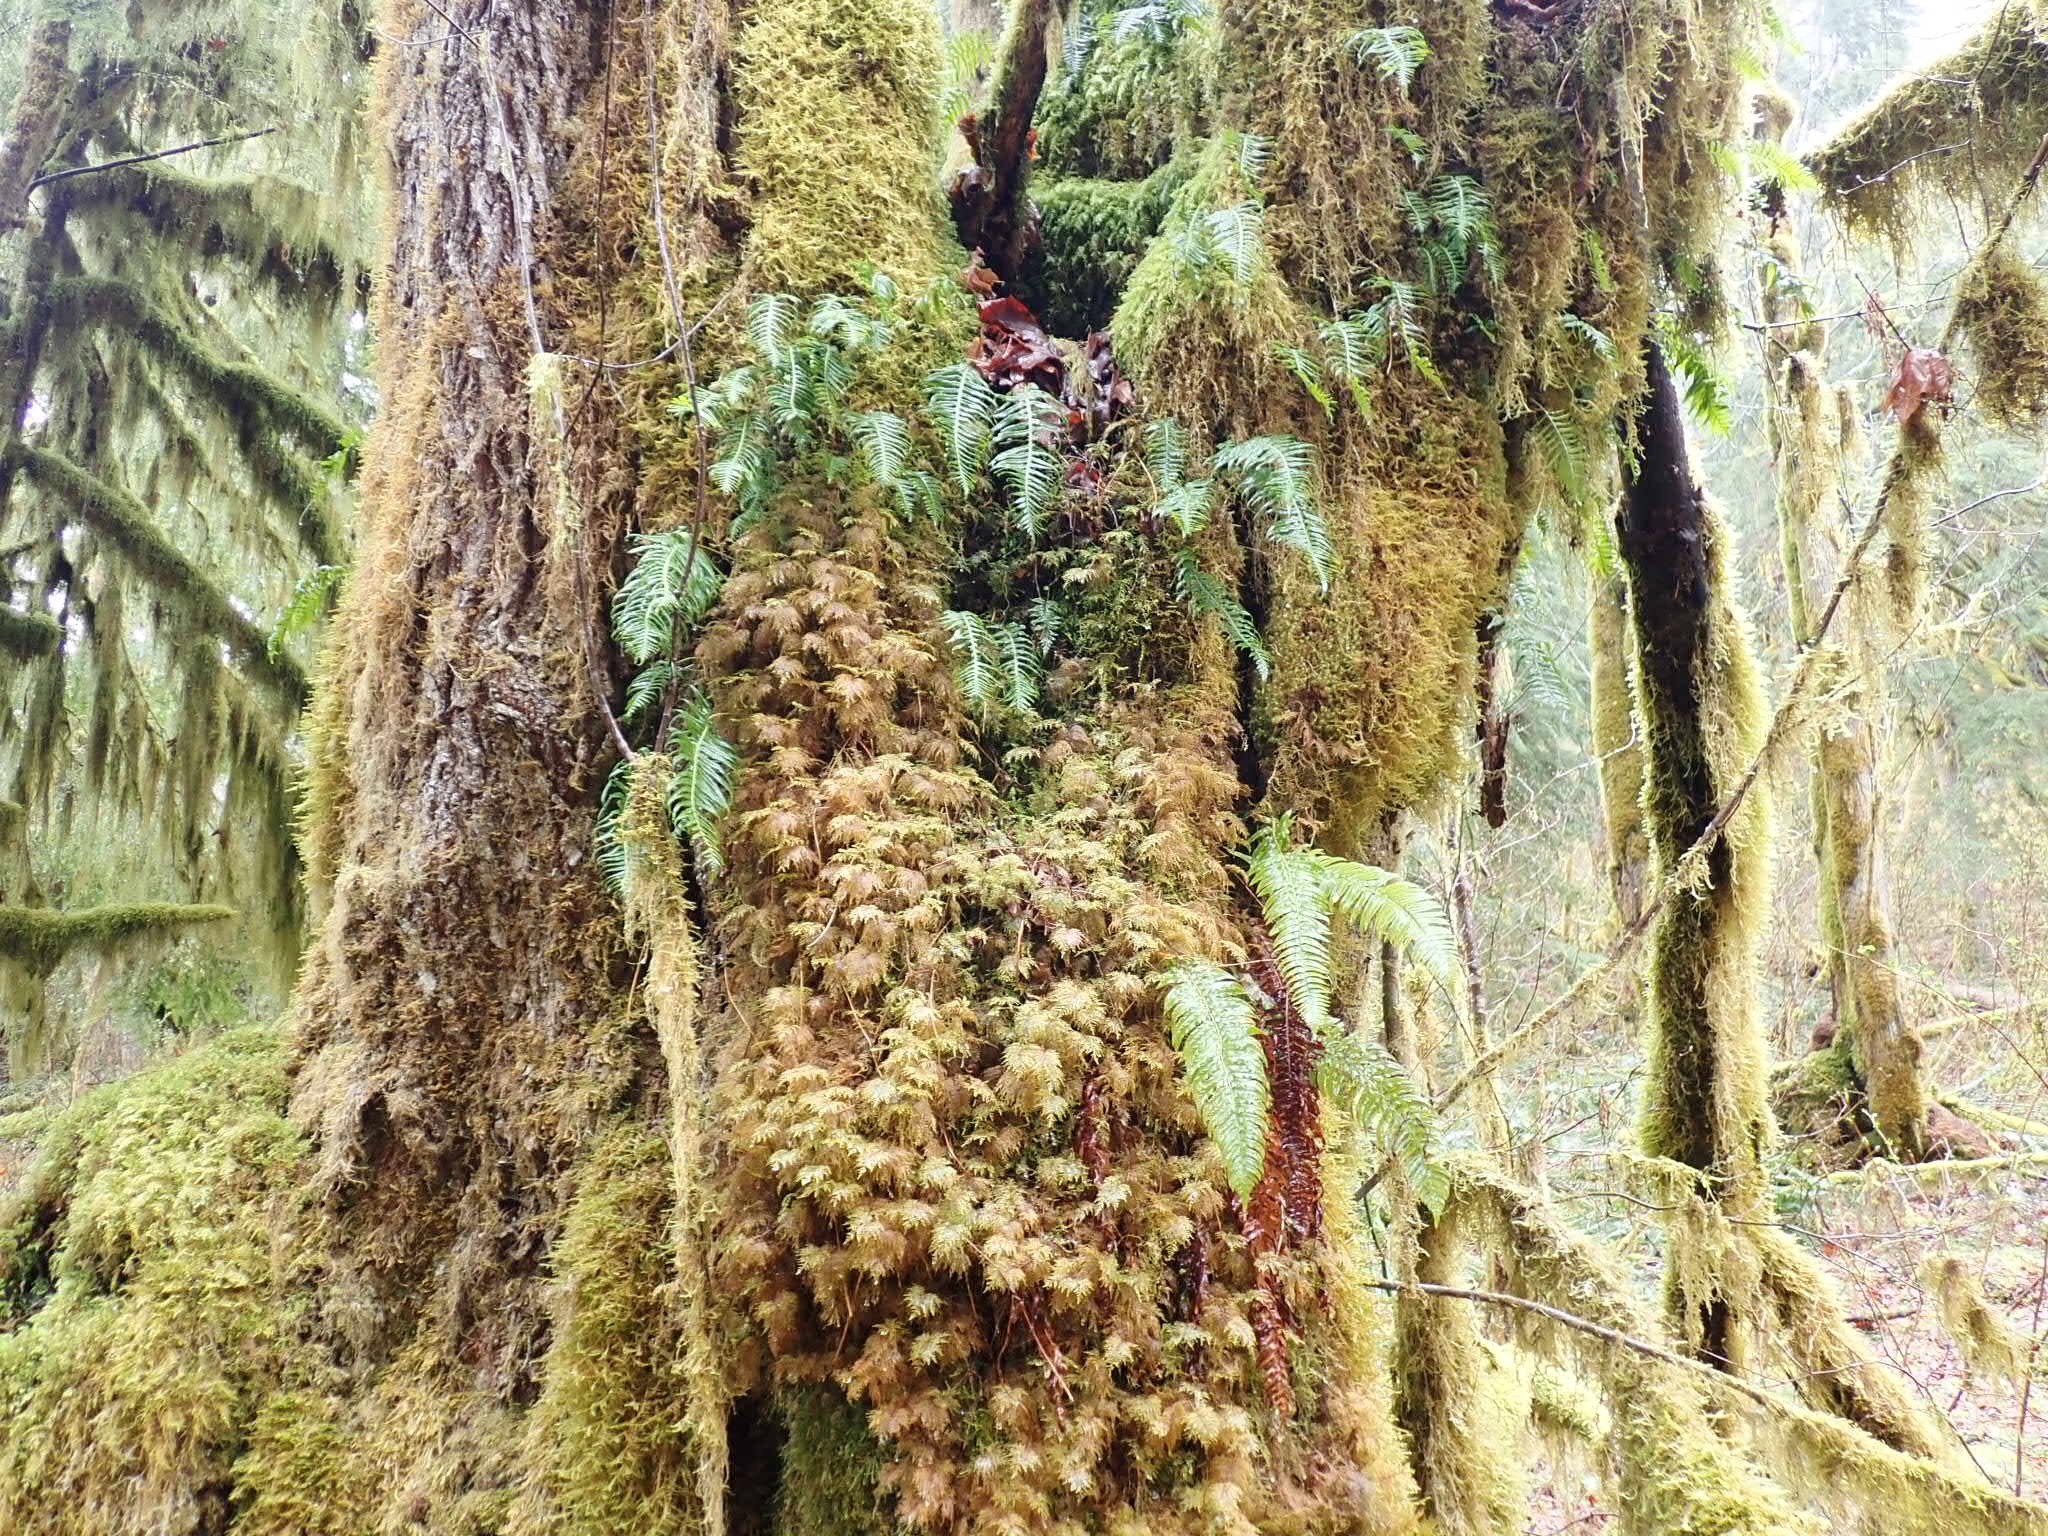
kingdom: Plantae
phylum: Tracheophyta
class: Polypodiopsida
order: Polypodiales
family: Polypodiaceae
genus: Polypodium
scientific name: Polypodium glycyrrhiza
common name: Licorice fern
